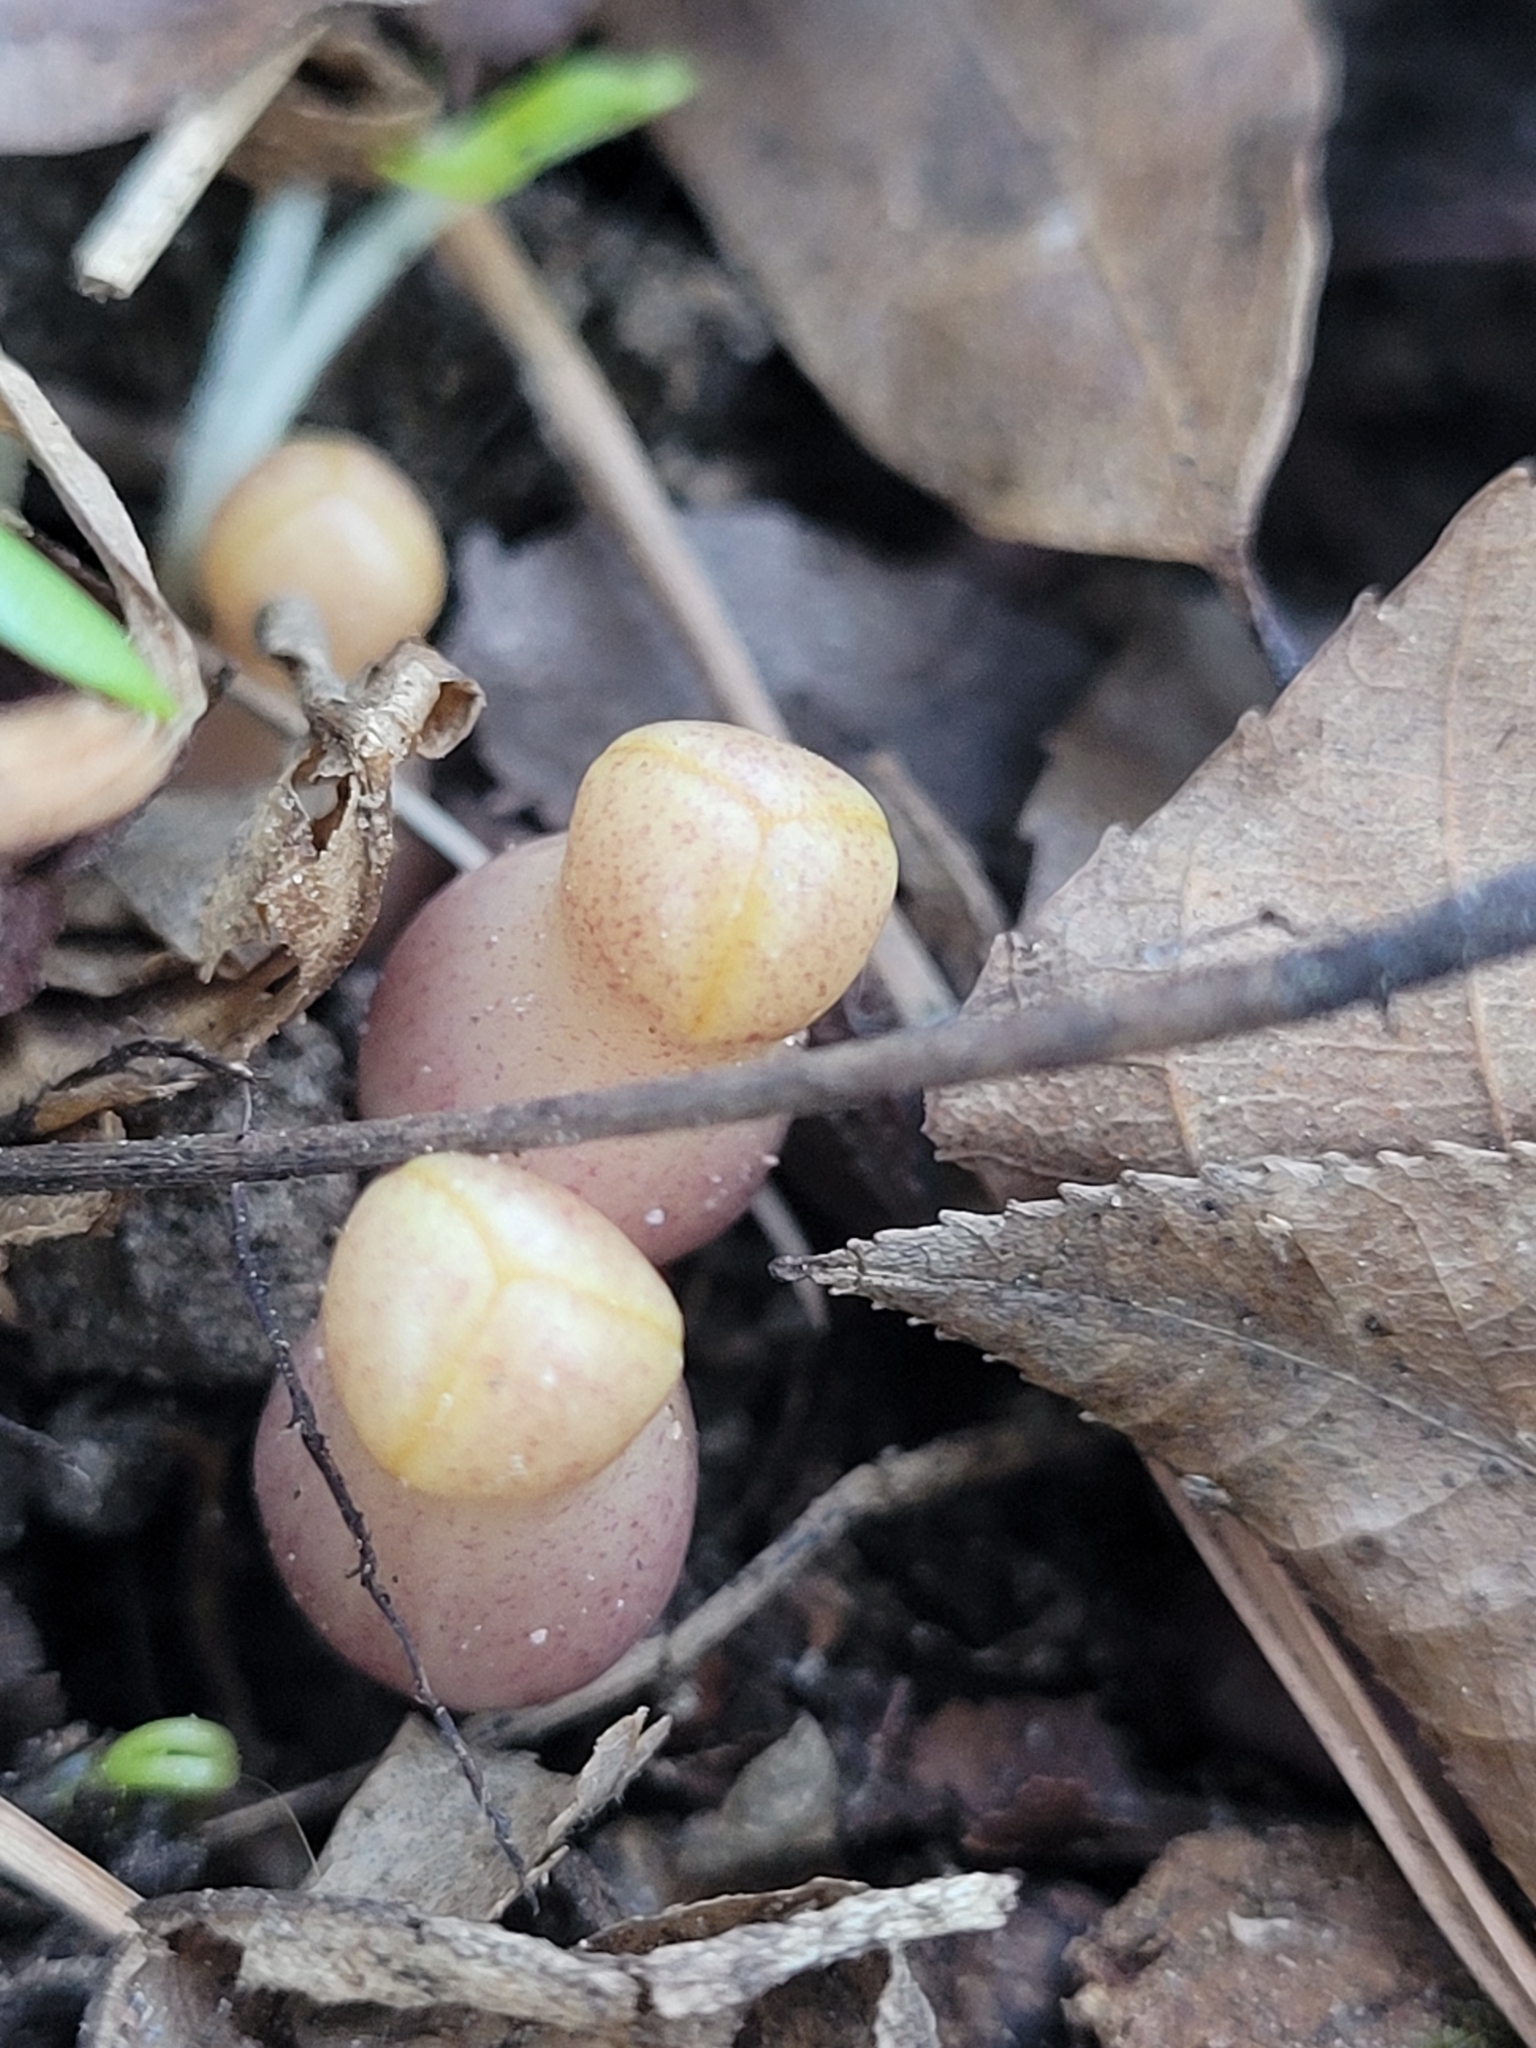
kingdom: Plantae
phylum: Tracheophyta
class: Magnoliopsida
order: Piperales
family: Aristolochiaceae
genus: Hexastylis
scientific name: Hexastylis arifolia
